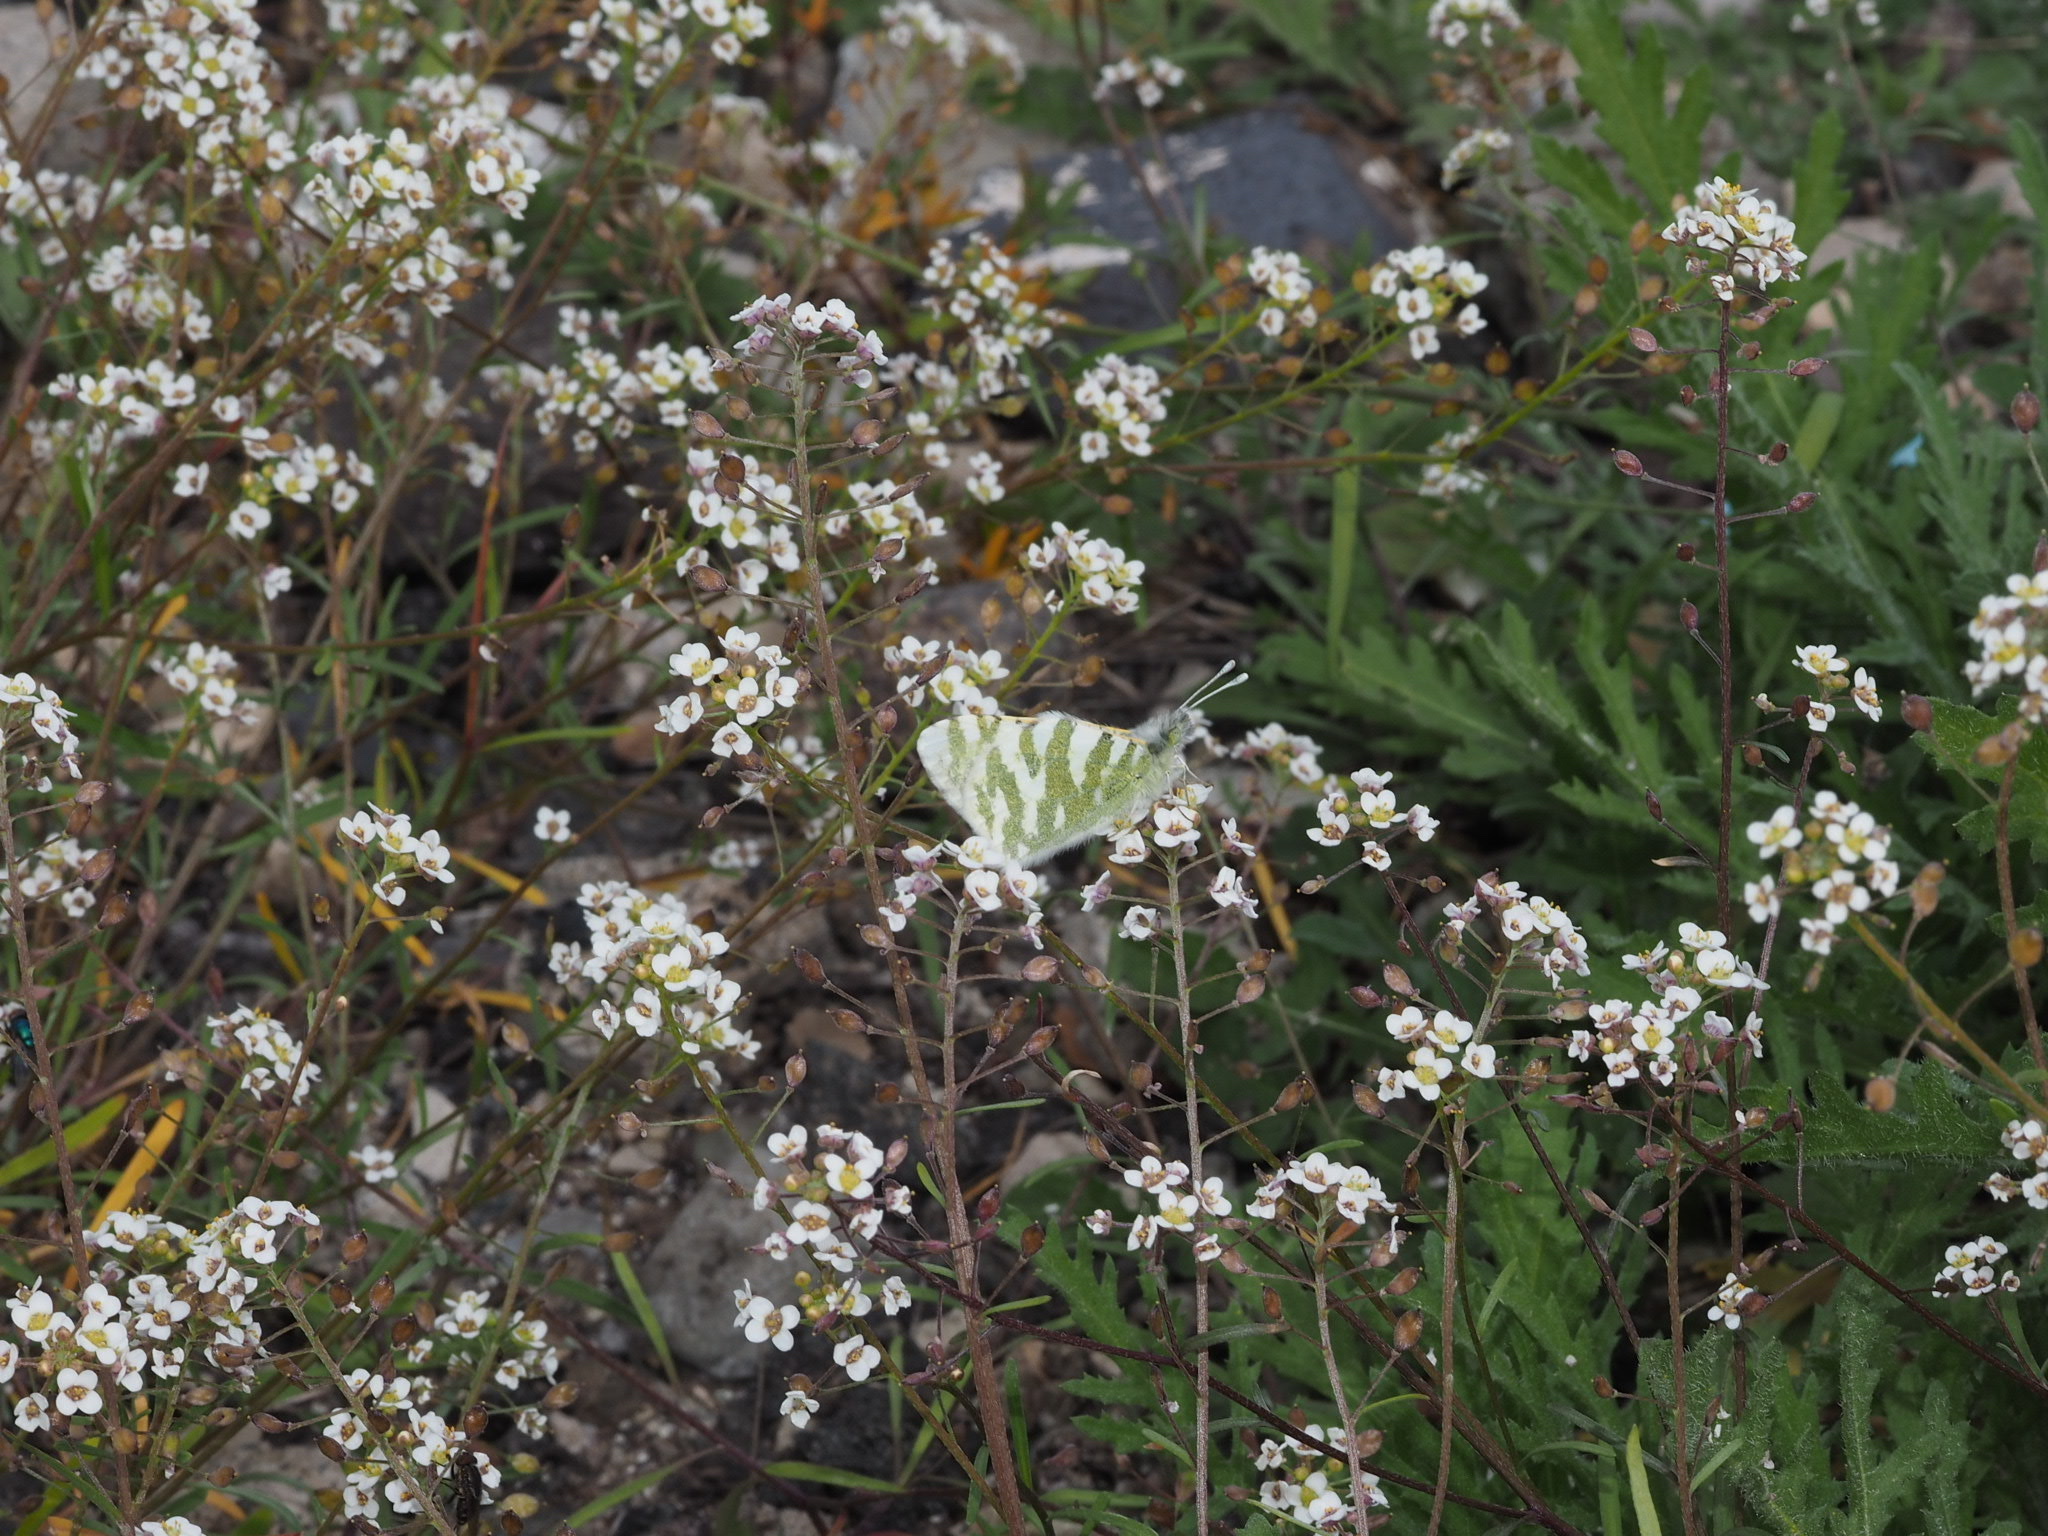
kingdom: Animalia
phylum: Arthropoda
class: Insecta
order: Lepidoptera
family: Pieridae
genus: Euchloe
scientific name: Euchloe grancanariensis
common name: Gran canaria green-striped white
